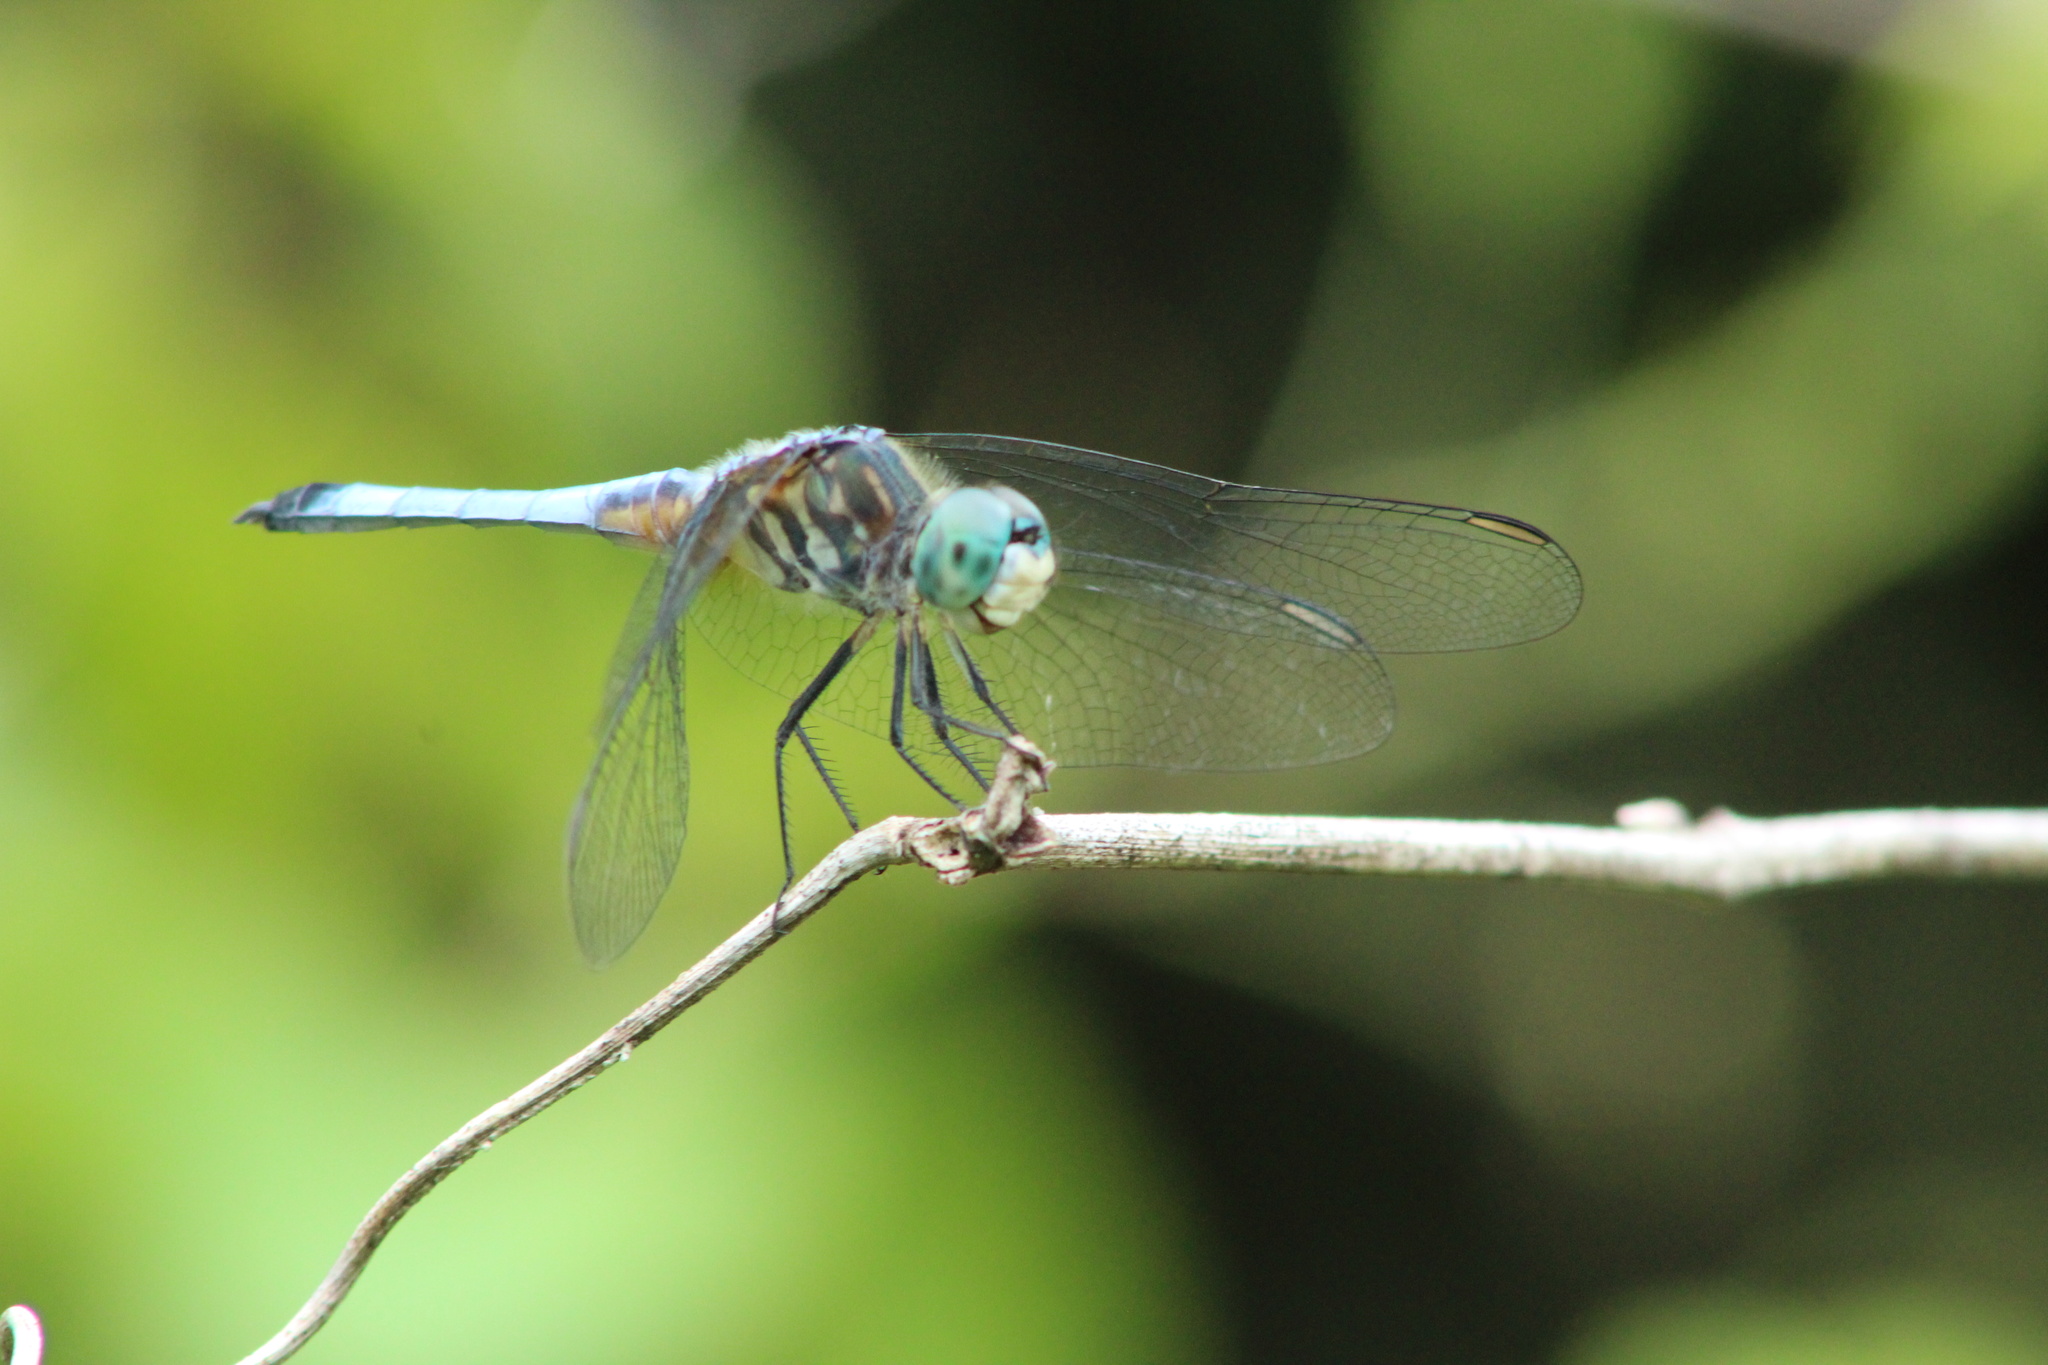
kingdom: Animalia
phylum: Arthropoda
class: Insecta
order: Odonata
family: Libellulidae
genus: Pachydiplax
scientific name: Pachydiplax longipennis
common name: Blue dasher
